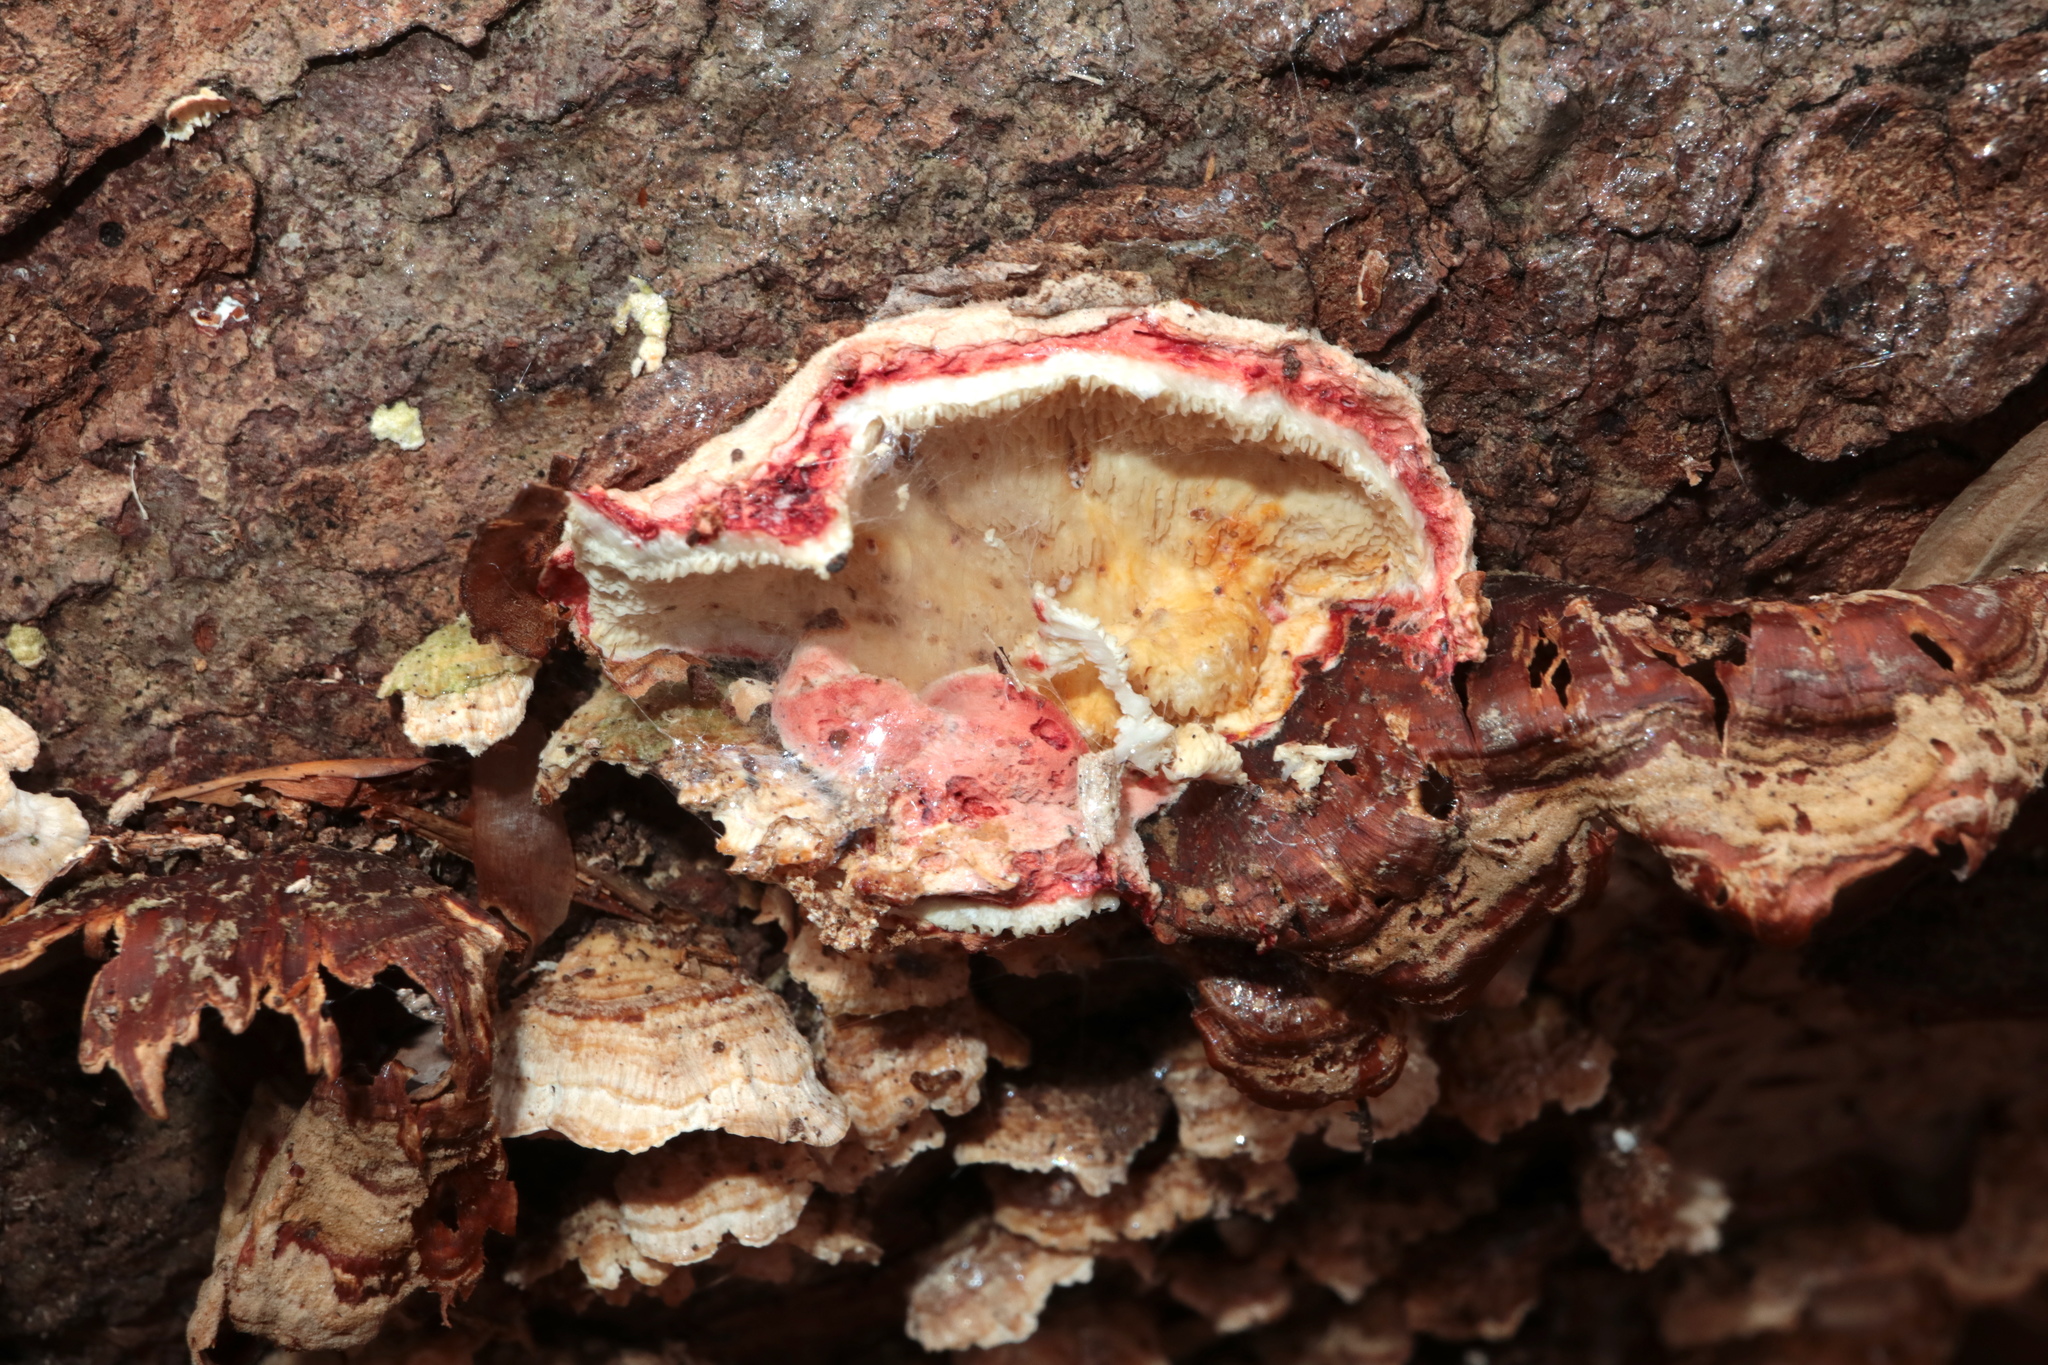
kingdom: Fungi
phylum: Basidiomycota
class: Agaricomycetes
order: Polyporales
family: Irpicaceae
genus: Byssomerulius
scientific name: Byssomerulius incarnatus
